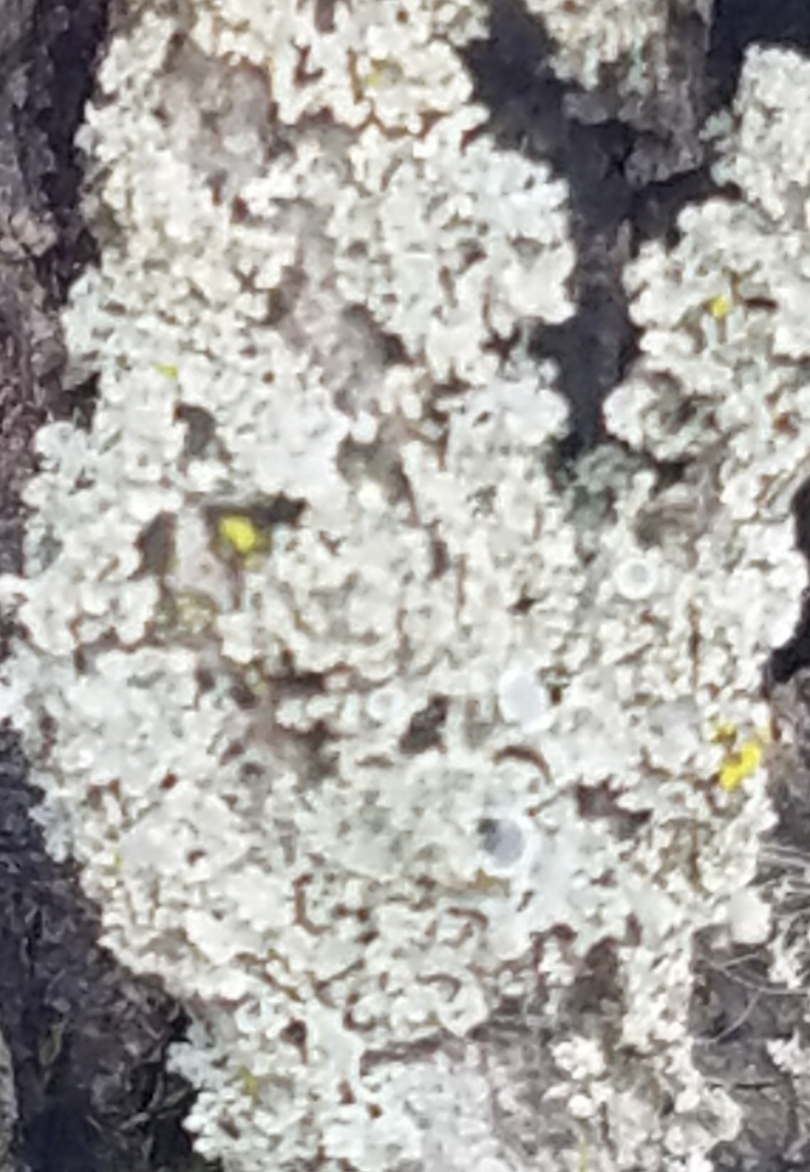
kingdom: Fungi
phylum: Ascomycota
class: Lecanoromycetes
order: Caliciales
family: Physciaceae
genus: Physcia
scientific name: Physcia millegrana
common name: Rosette lichen
